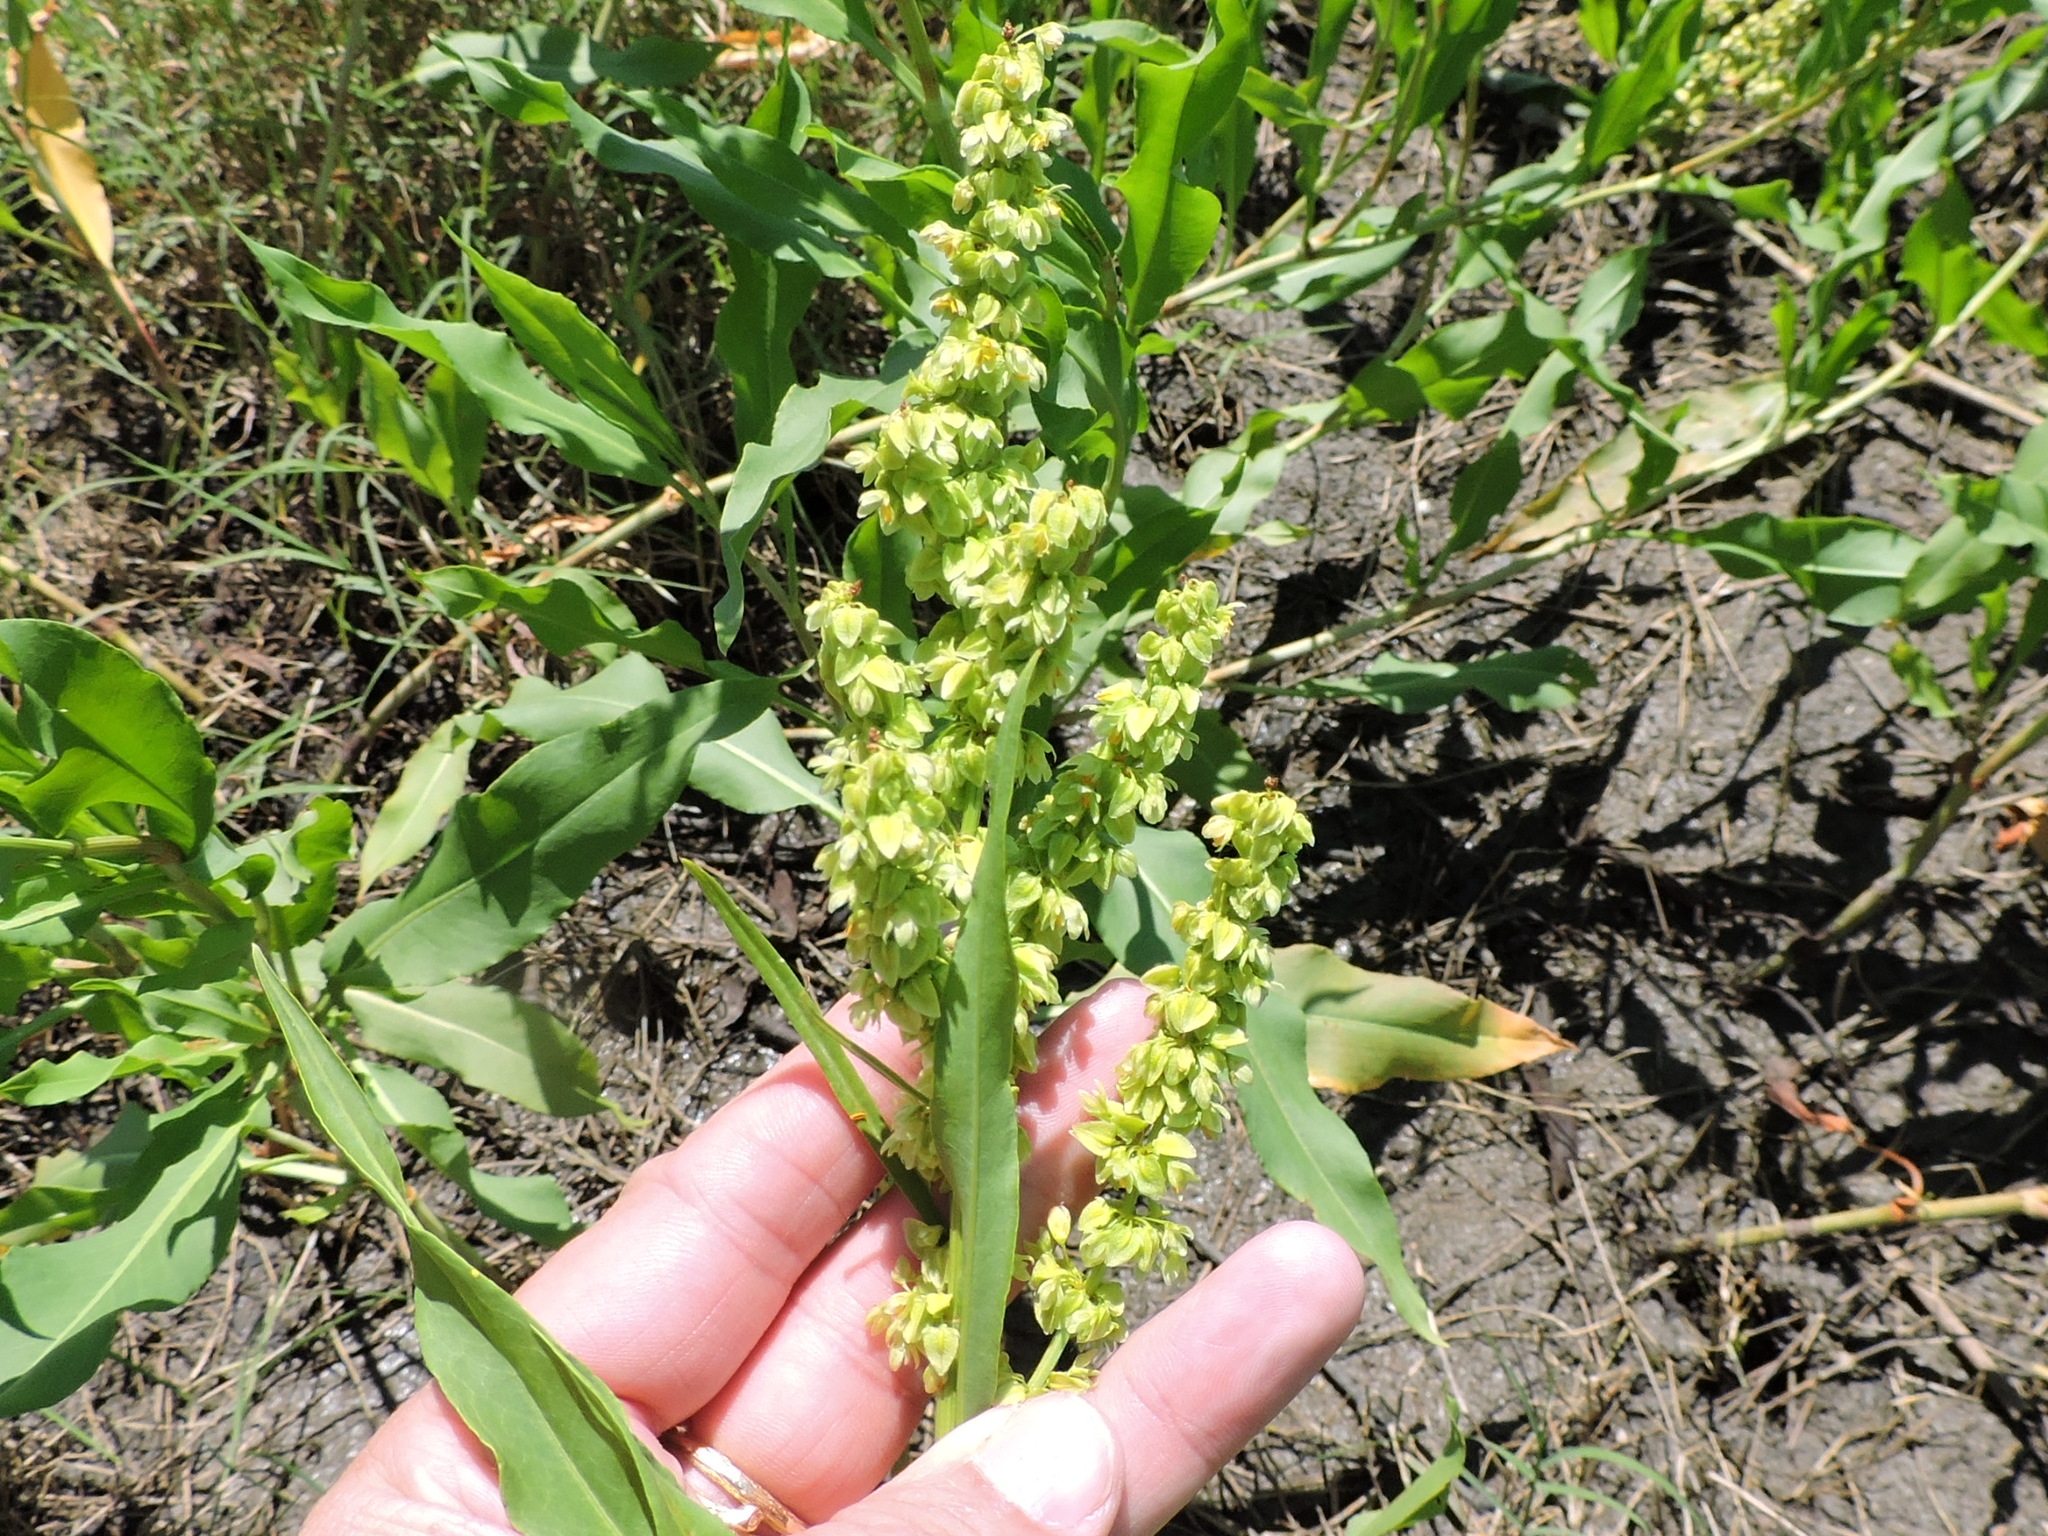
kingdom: Plantae
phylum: Tracheophyta
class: Magnoliopsida
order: Caryophyllales
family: Polygonaceae
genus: Rumex
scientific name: Rumex crispus
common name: Curled dock
